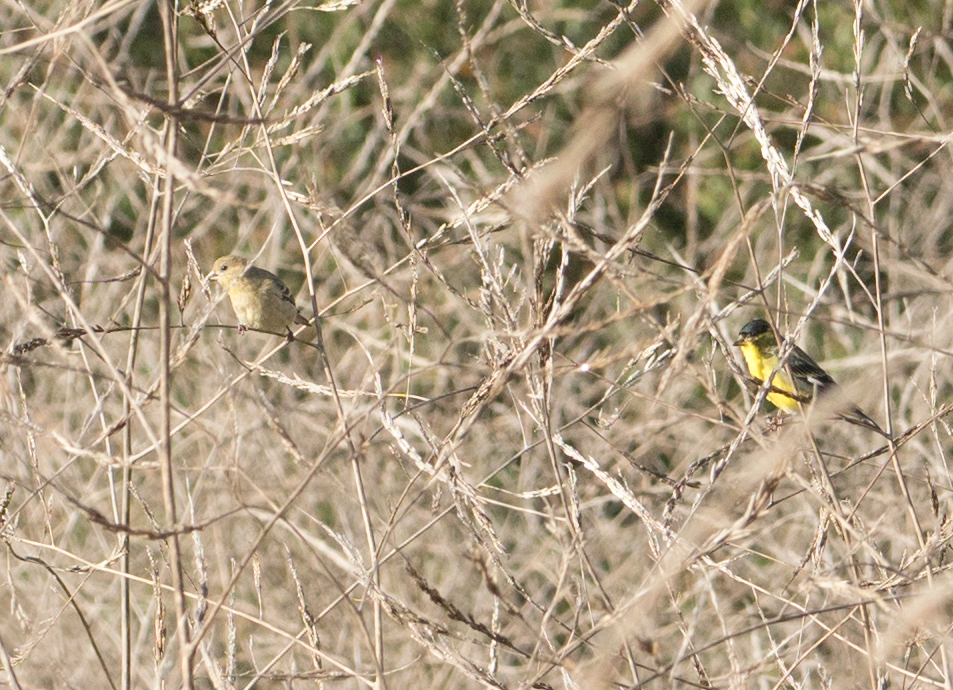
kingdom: Animalia
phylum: Chordata
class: Aves
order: Passeriformes
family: Fringillidae
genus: Spinus
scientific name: Spinus psaltria
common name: Lesser goldfinch
